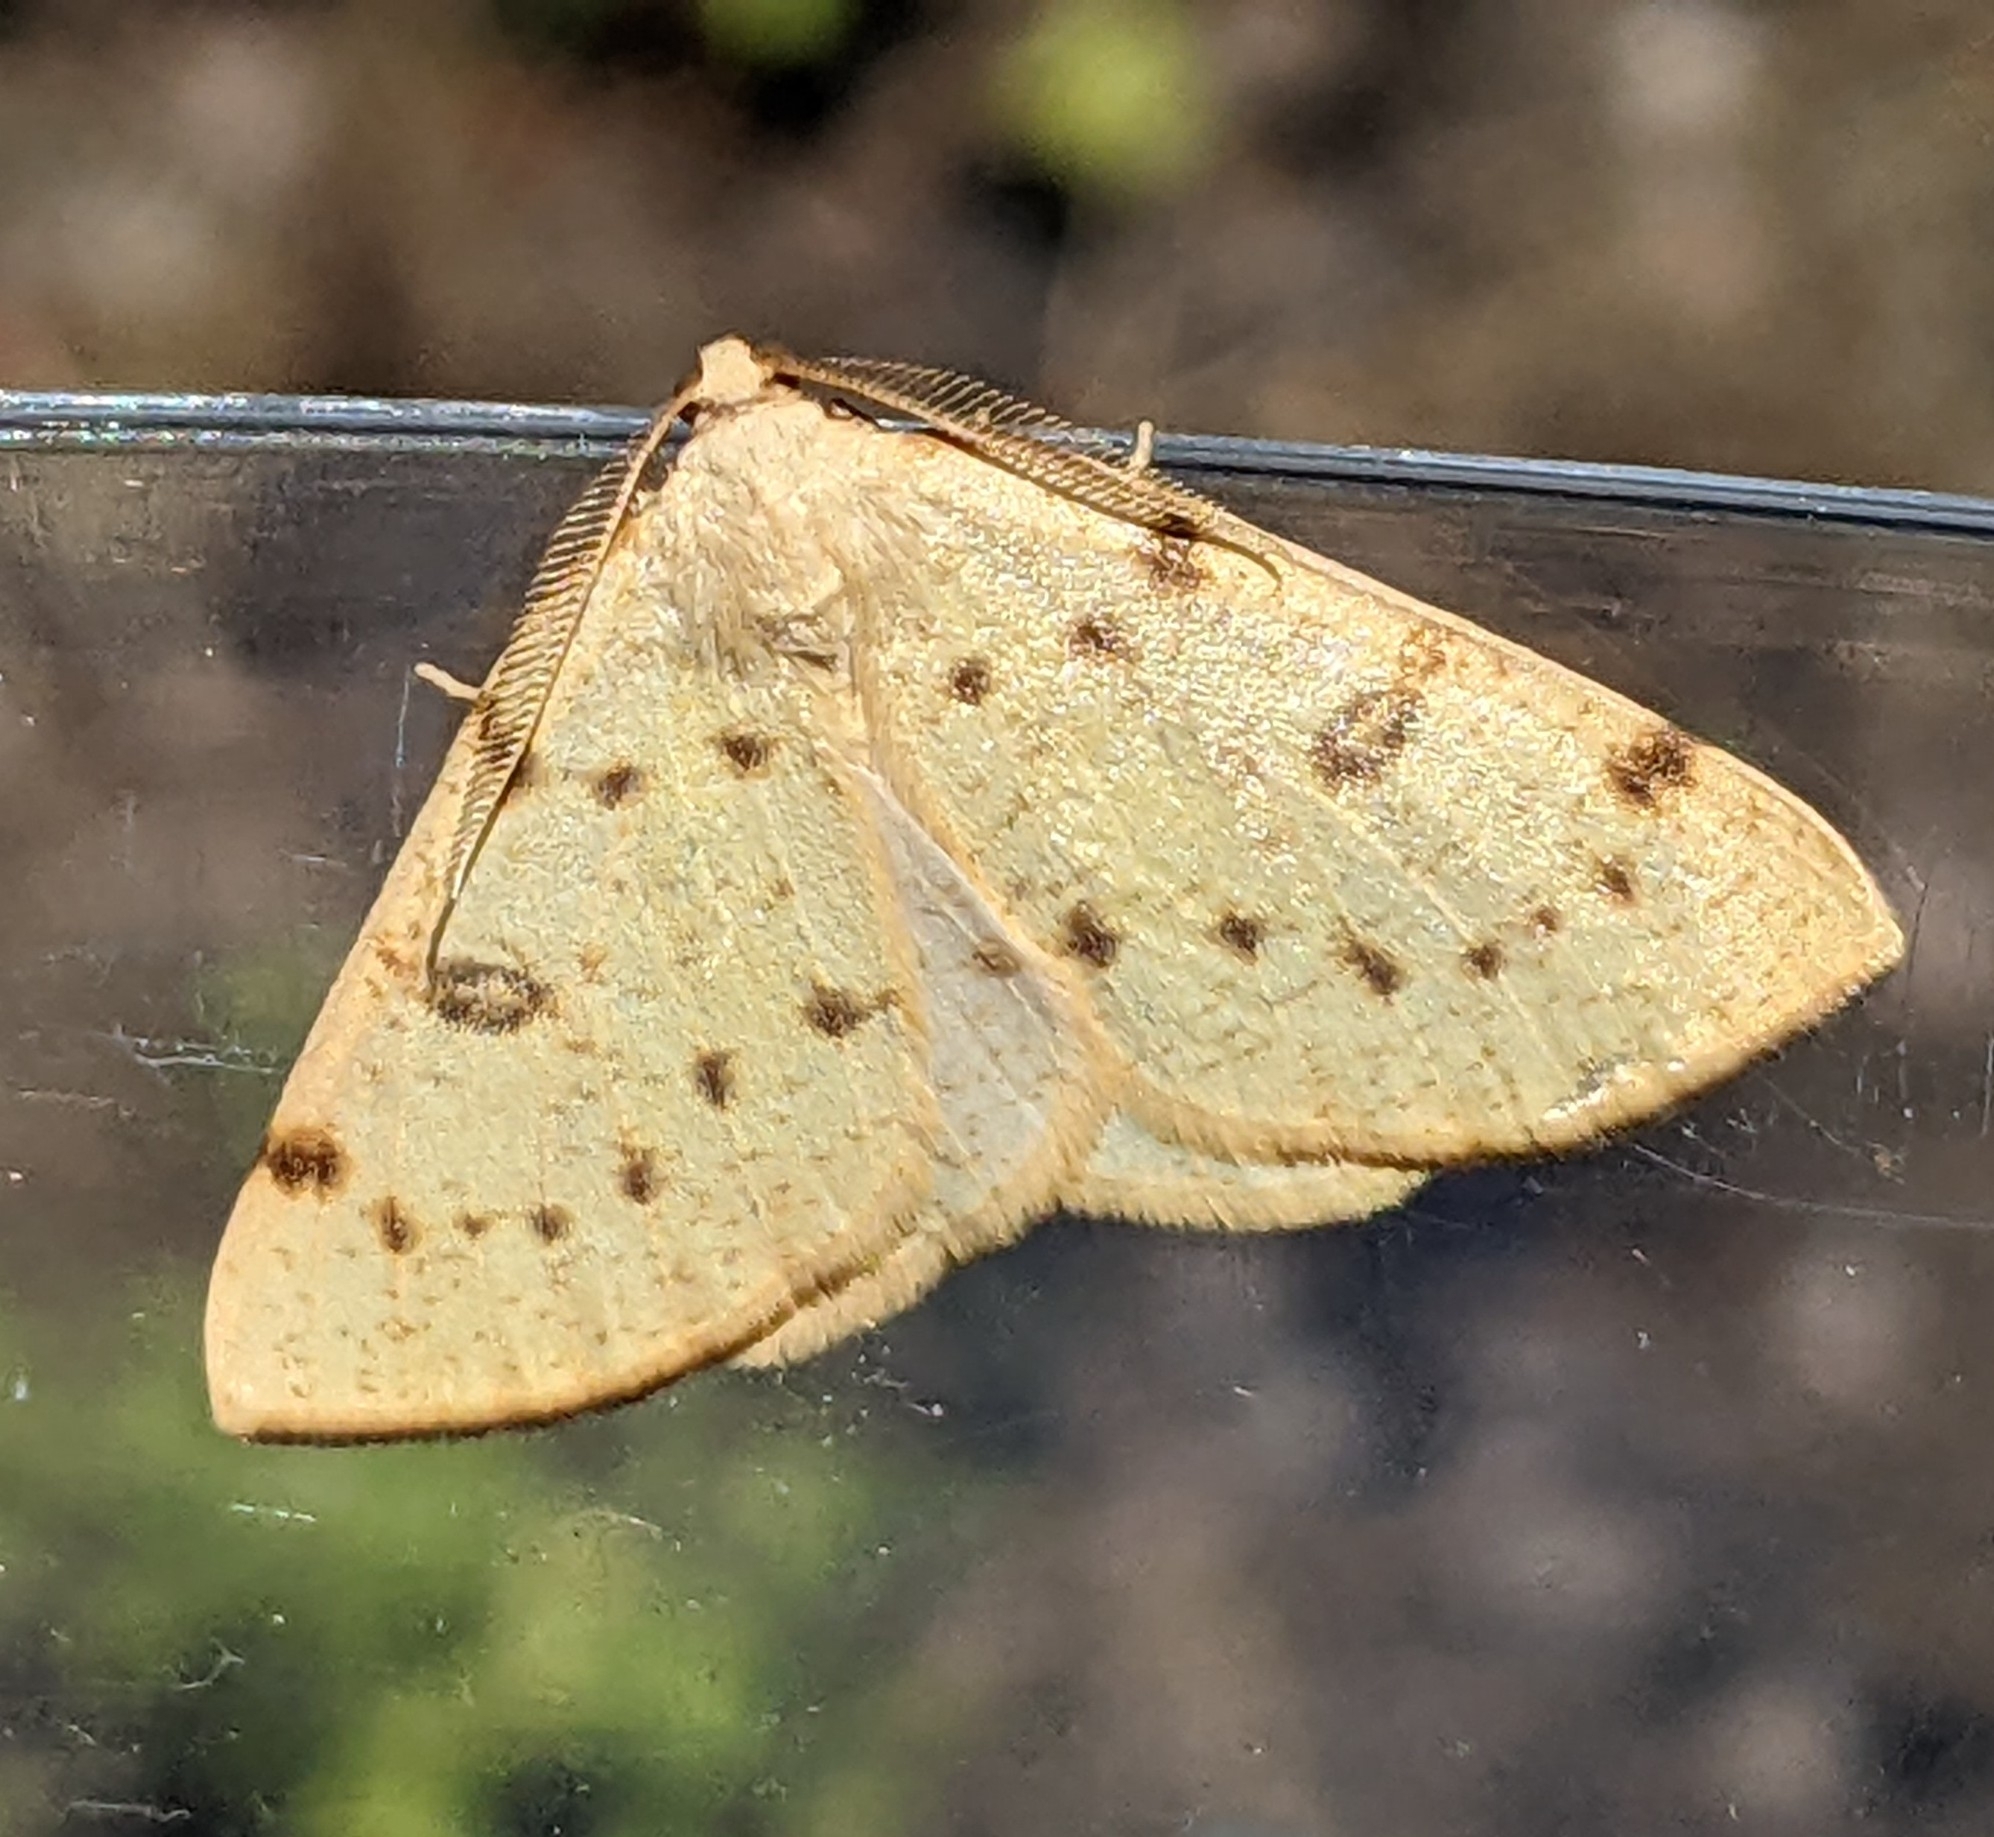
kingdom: Animalia
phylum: Arthropoda
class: Insecta
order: Lepidoptera
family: Geometridae
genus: Hesperumia
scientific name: Hesperumia sulphuraria
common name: Sulphur moth
